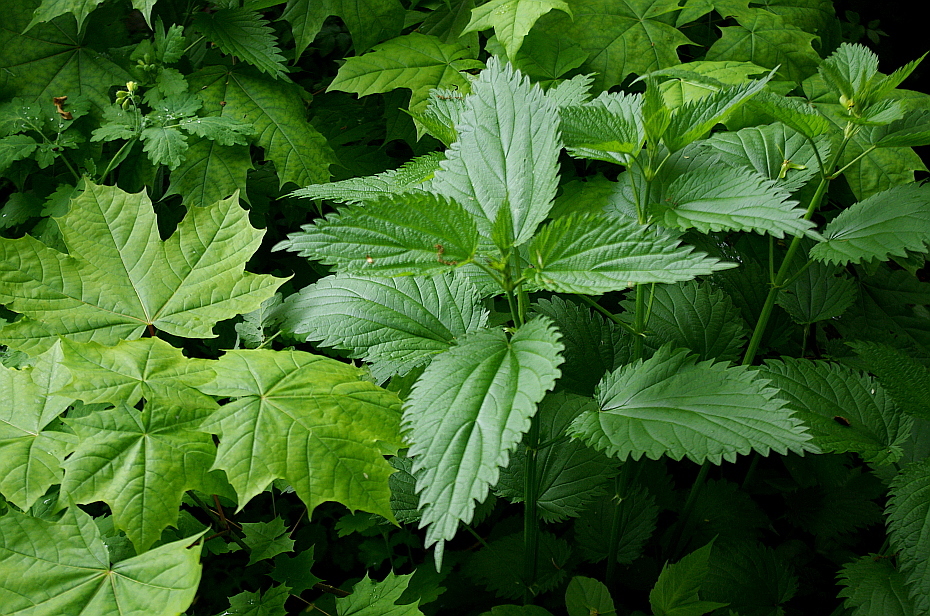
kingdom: Plantae
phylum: Tracheophyta
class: Magnoliopsida
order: Rosales
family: Urticaceae
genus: Urtica
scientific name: Urtica dioica
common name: Common nettle
